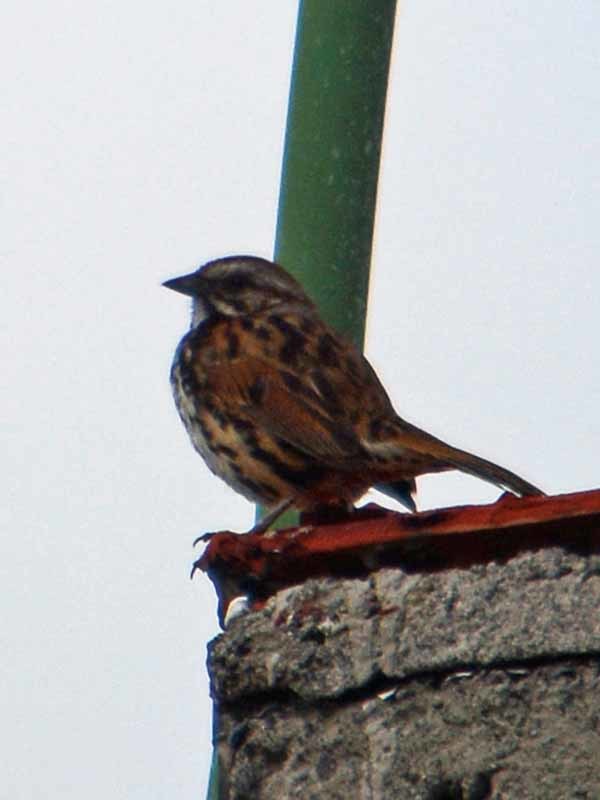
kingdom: Animalia
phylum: Chordata
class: Aves
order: Passeriformes
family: Passerellidae
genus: Melospiza
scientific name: Melospiza melodia
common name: Song sparrow
